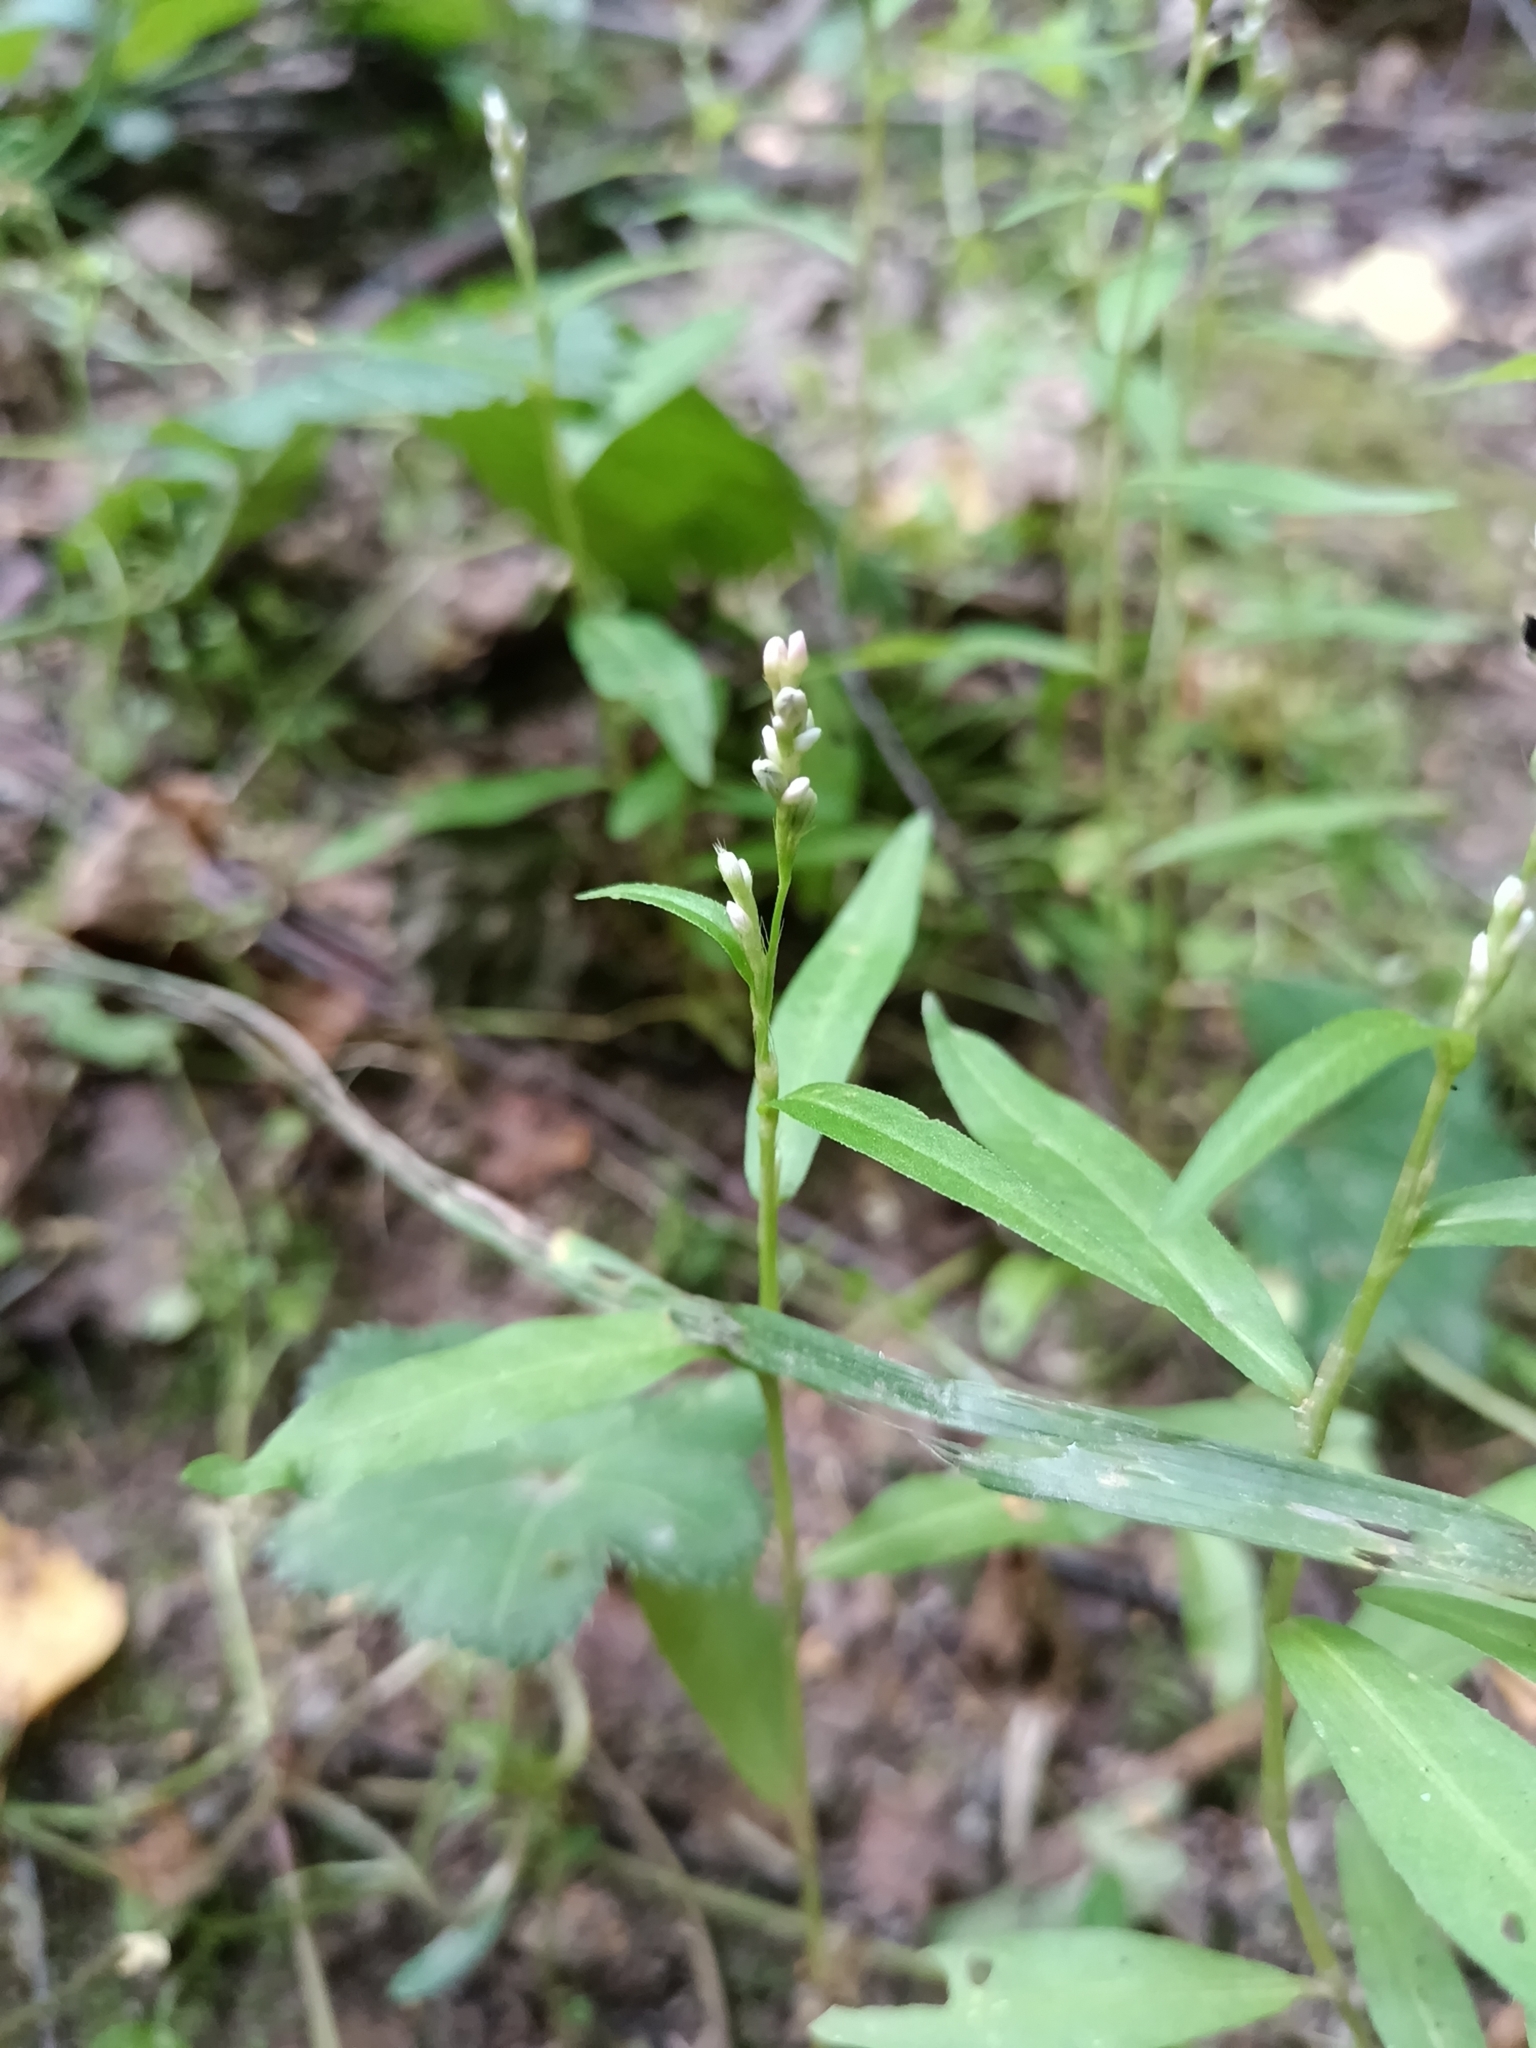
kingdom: Plantae
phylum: Tracheophyta
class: Magnoliopsida
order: Caryophyllales
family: Polygonaceae
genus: Persicaria
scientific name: Persicaria minor
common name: Small water-pepper
